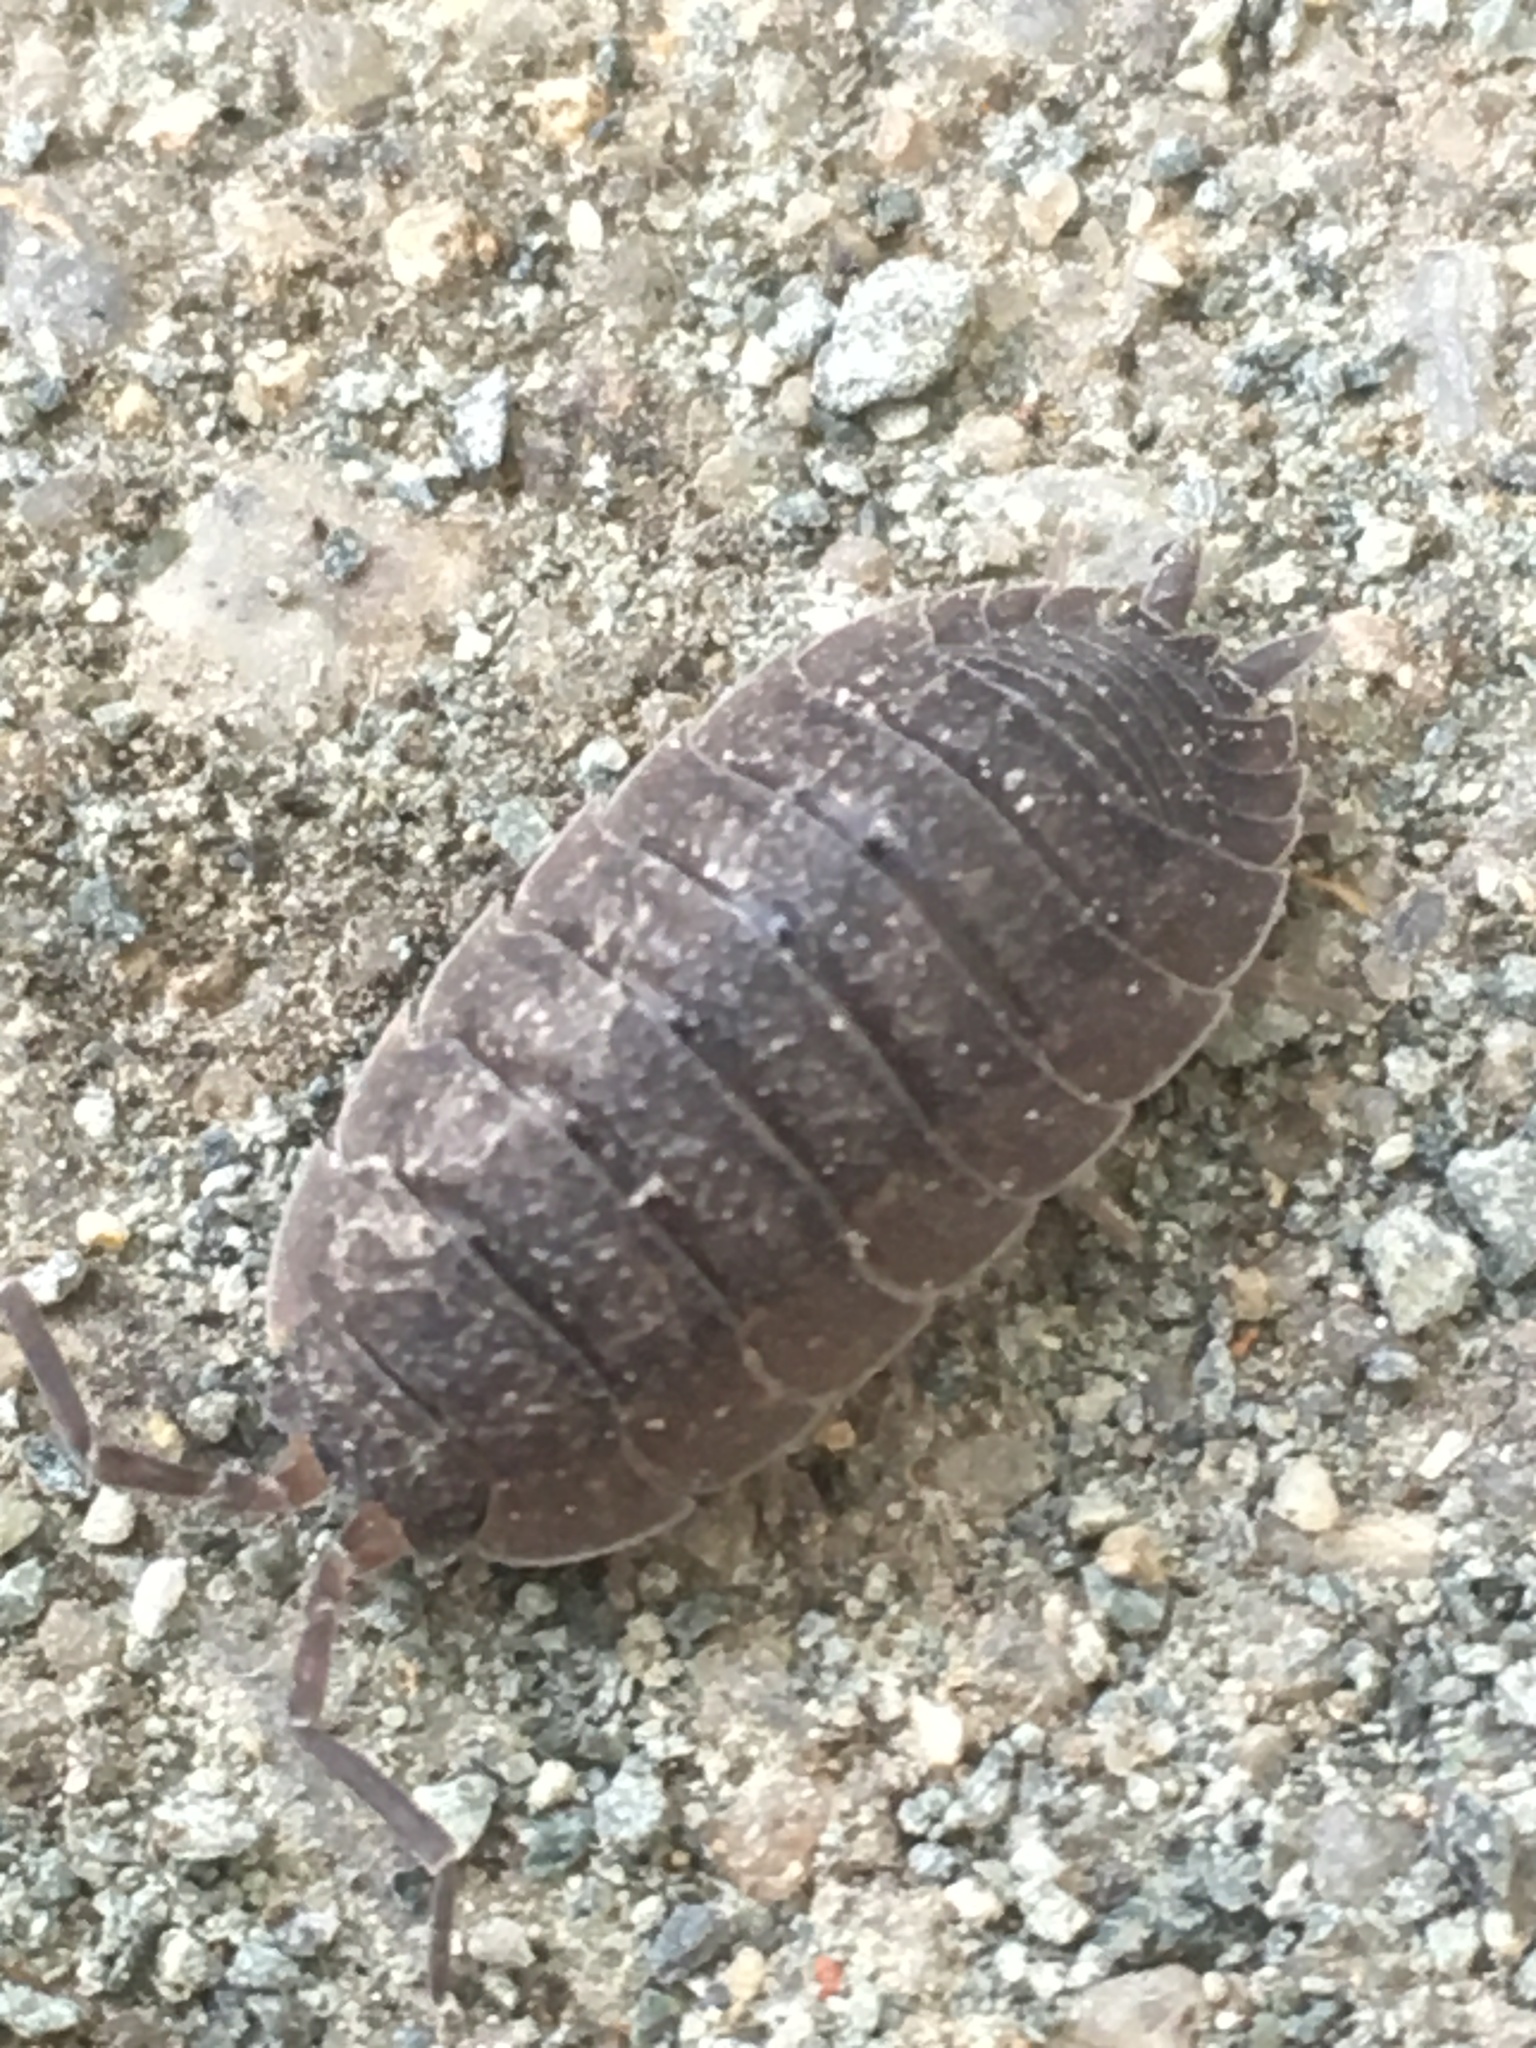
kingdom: Animalia
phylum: Arthropoda
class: Malacostraca
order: Isopoda
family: Porcellionidae
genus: Porcellio
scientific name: Porcellio scaber
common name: Common rough woodlouse
